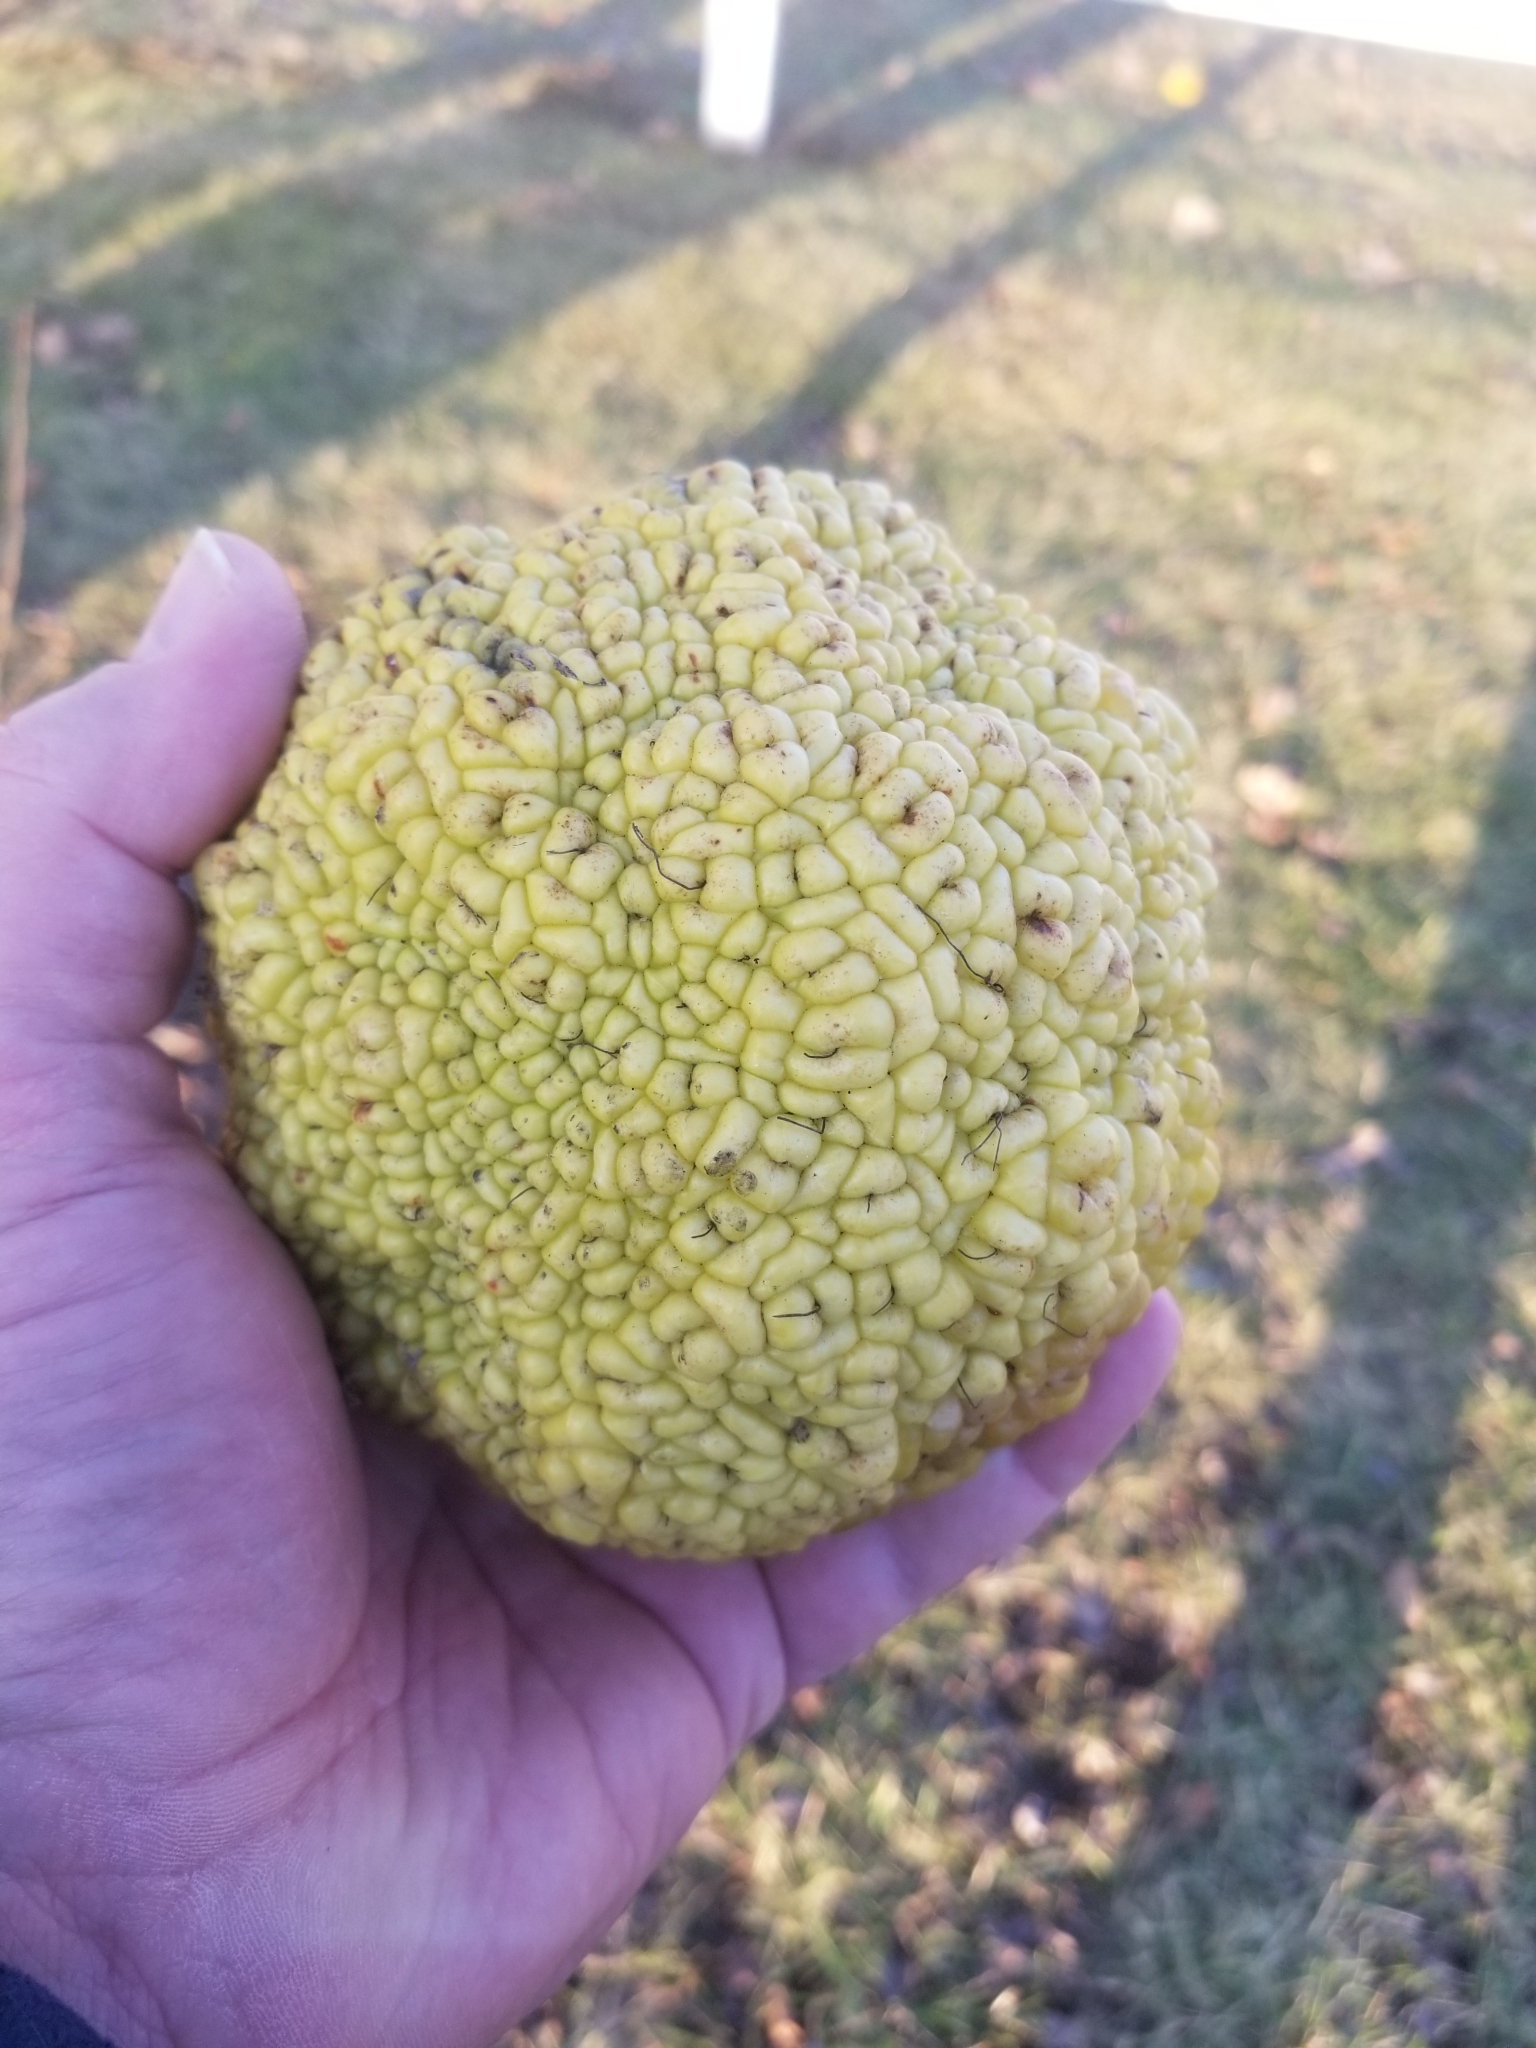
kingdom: Plantae
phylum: Tracheophyta
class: Magnoliopsida
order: Rosales
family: Moraceae
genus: Maclura
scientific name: Maclura pomifera
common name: Osage-orange
